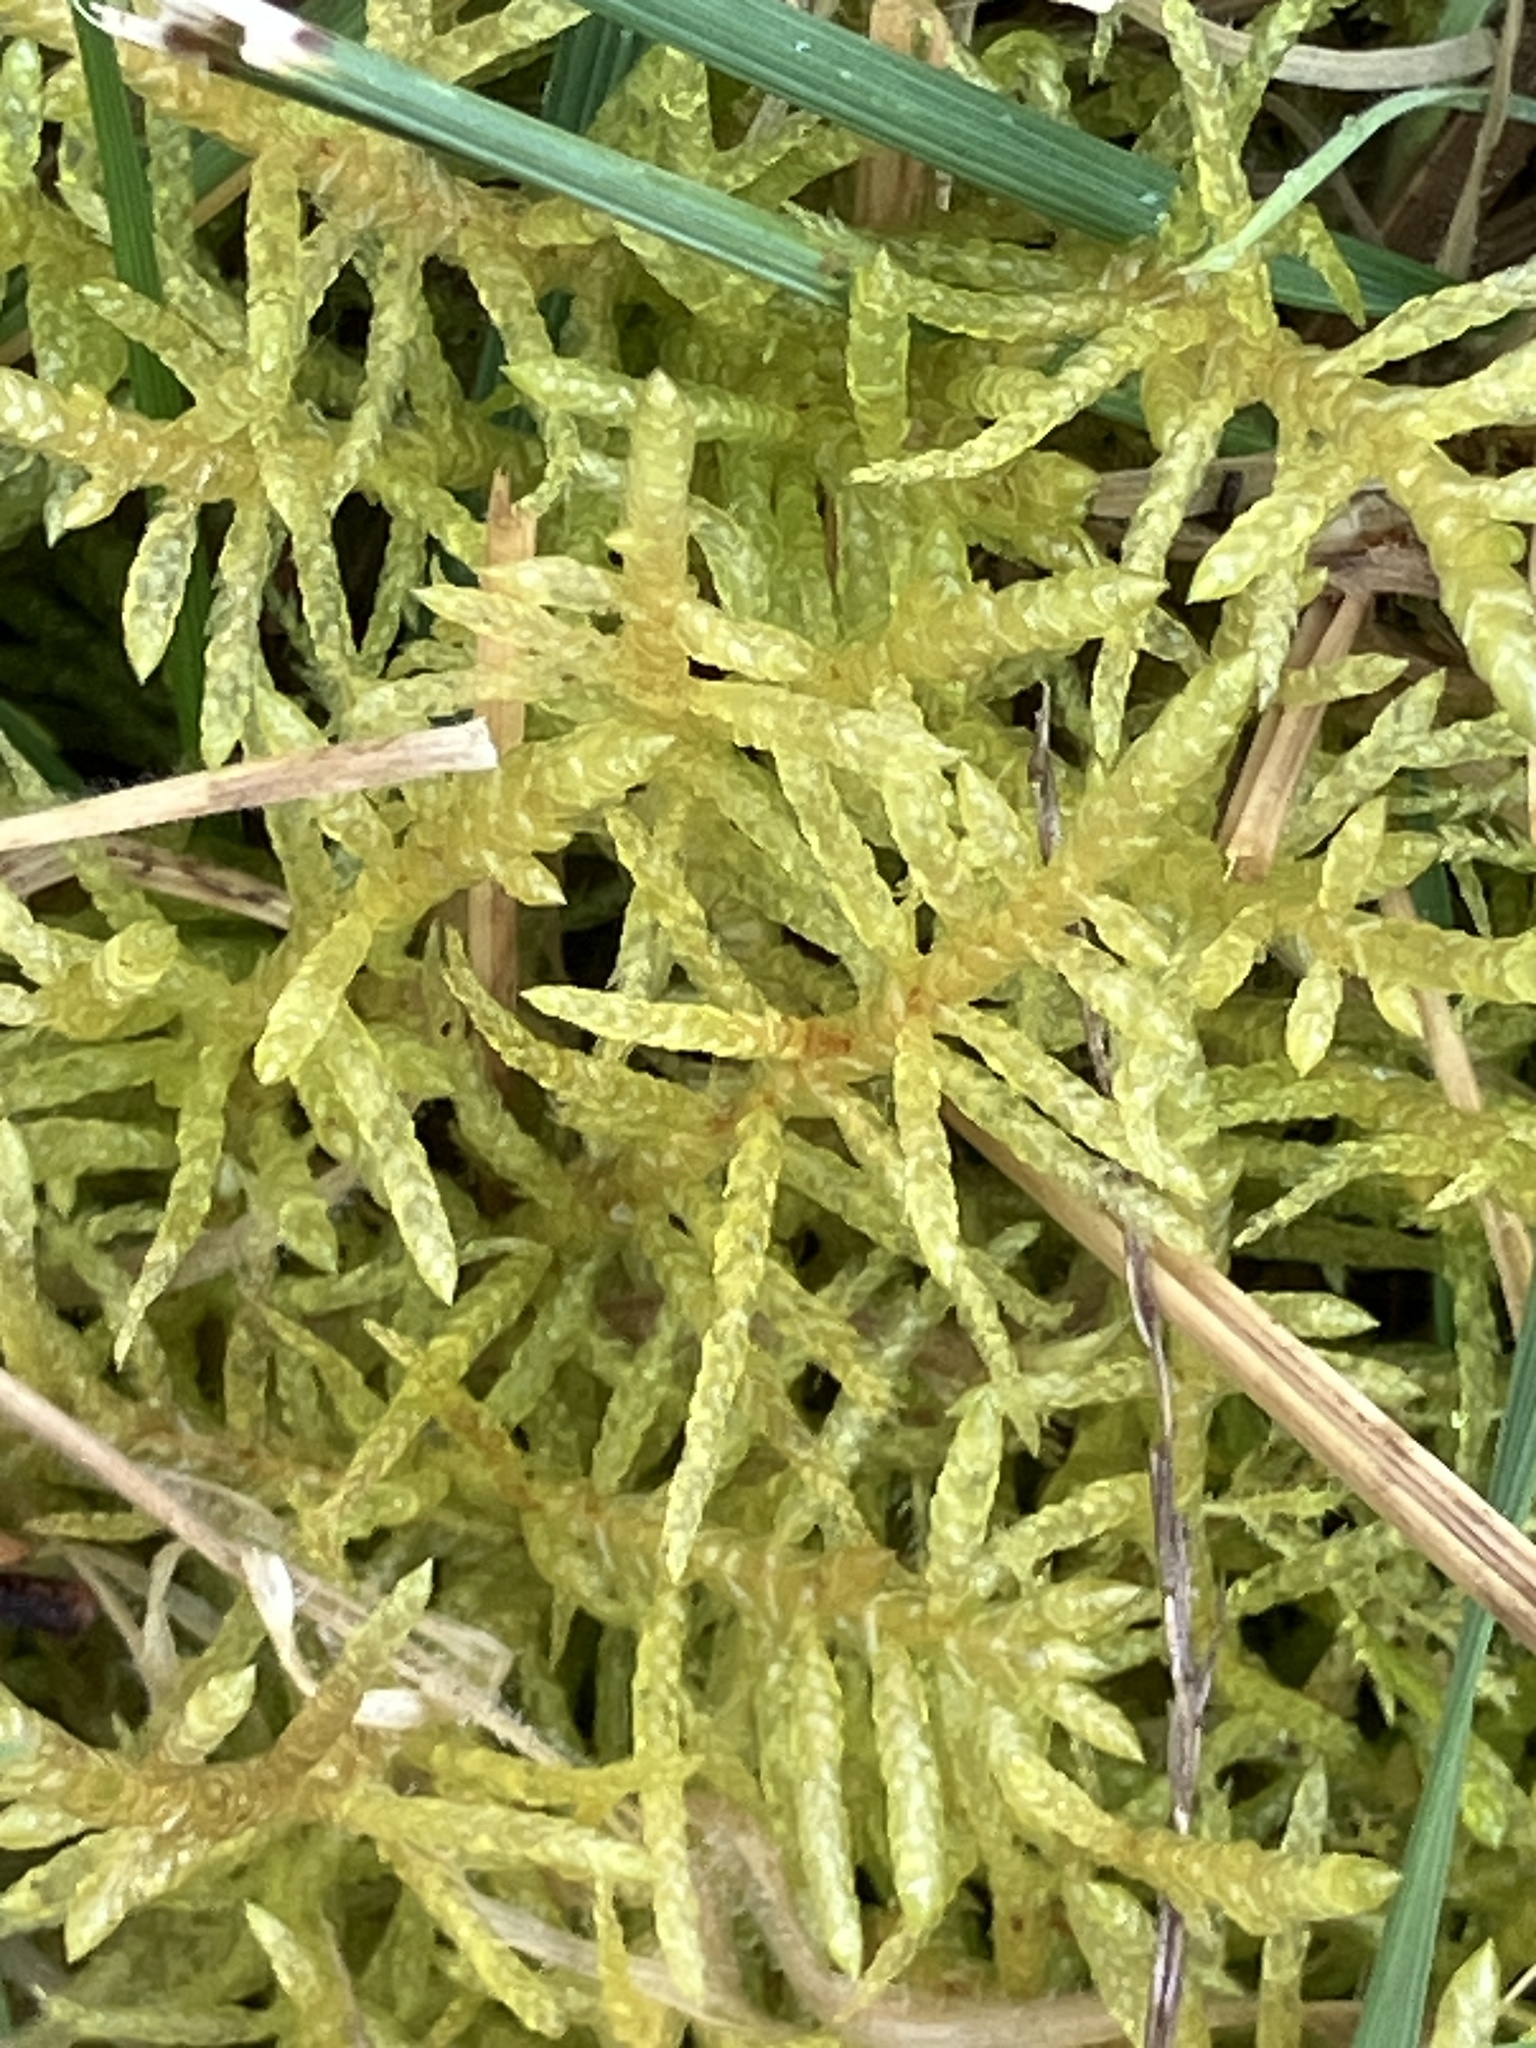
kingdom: Plantae
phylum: Bryophyta
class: Bryopsida
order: Hypnales
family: Brachytheciaceae
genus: Pseudoscleropodium
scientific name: Pseudoscleropodium purum
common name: Neat feather-moss
